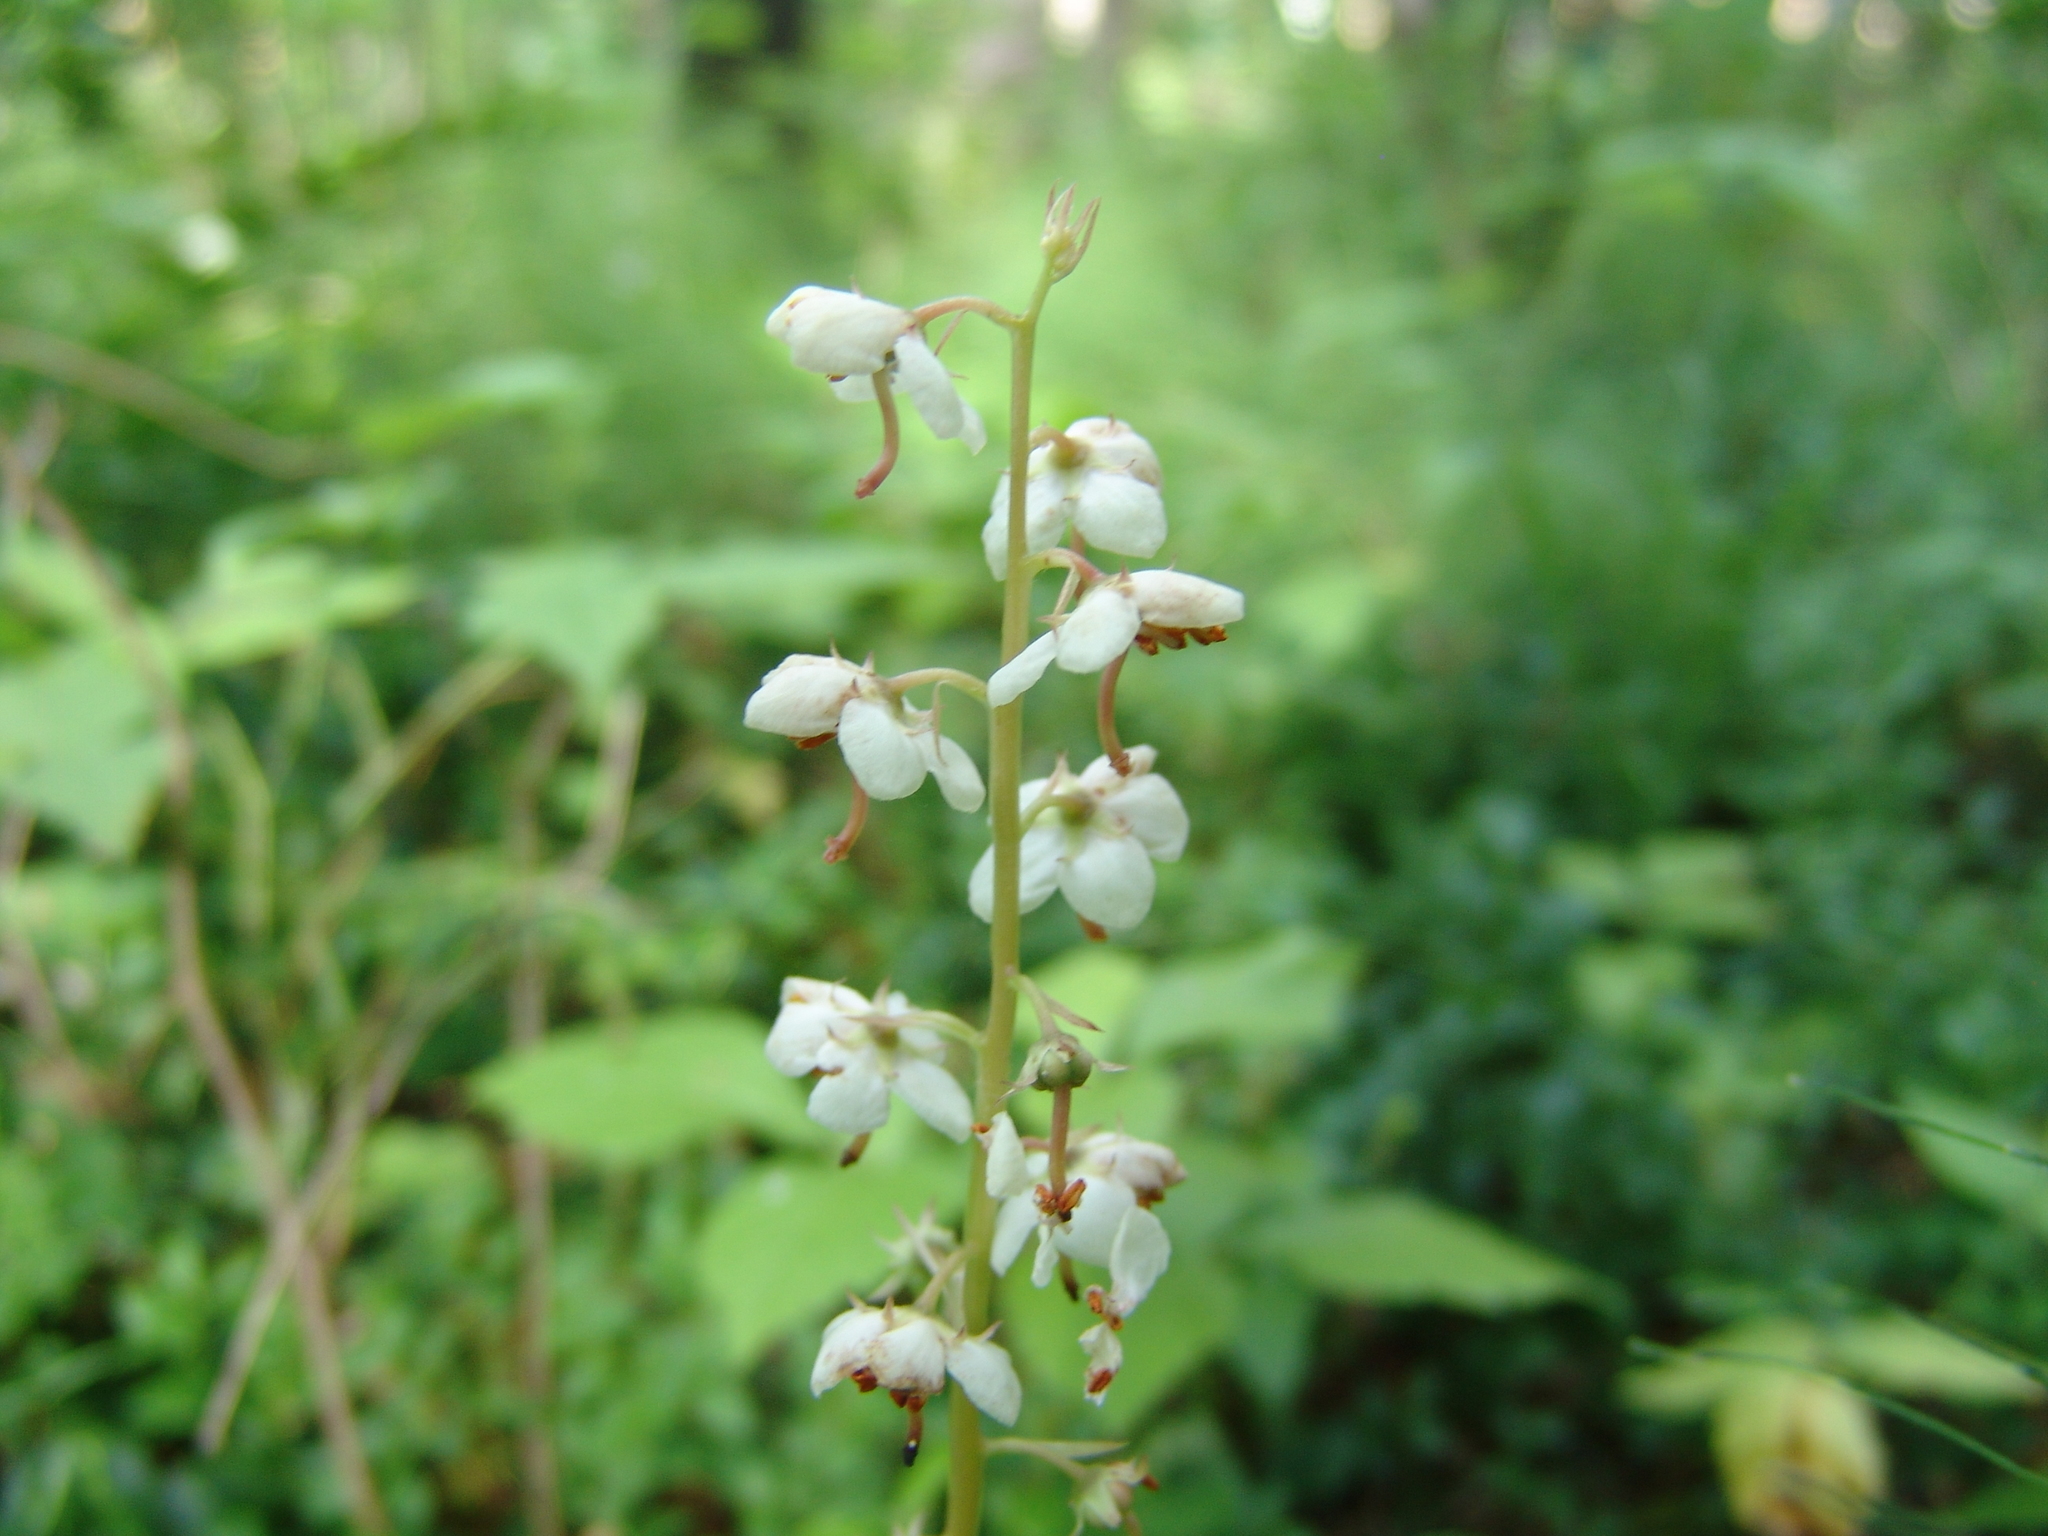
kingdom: Plantae
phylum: Tracheophyta
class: Magnoliopsida
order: Ericales
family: Ericaceae
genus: Pyrola
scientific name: Pyrola rotundifolia
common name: Round-leaved wintergreen
